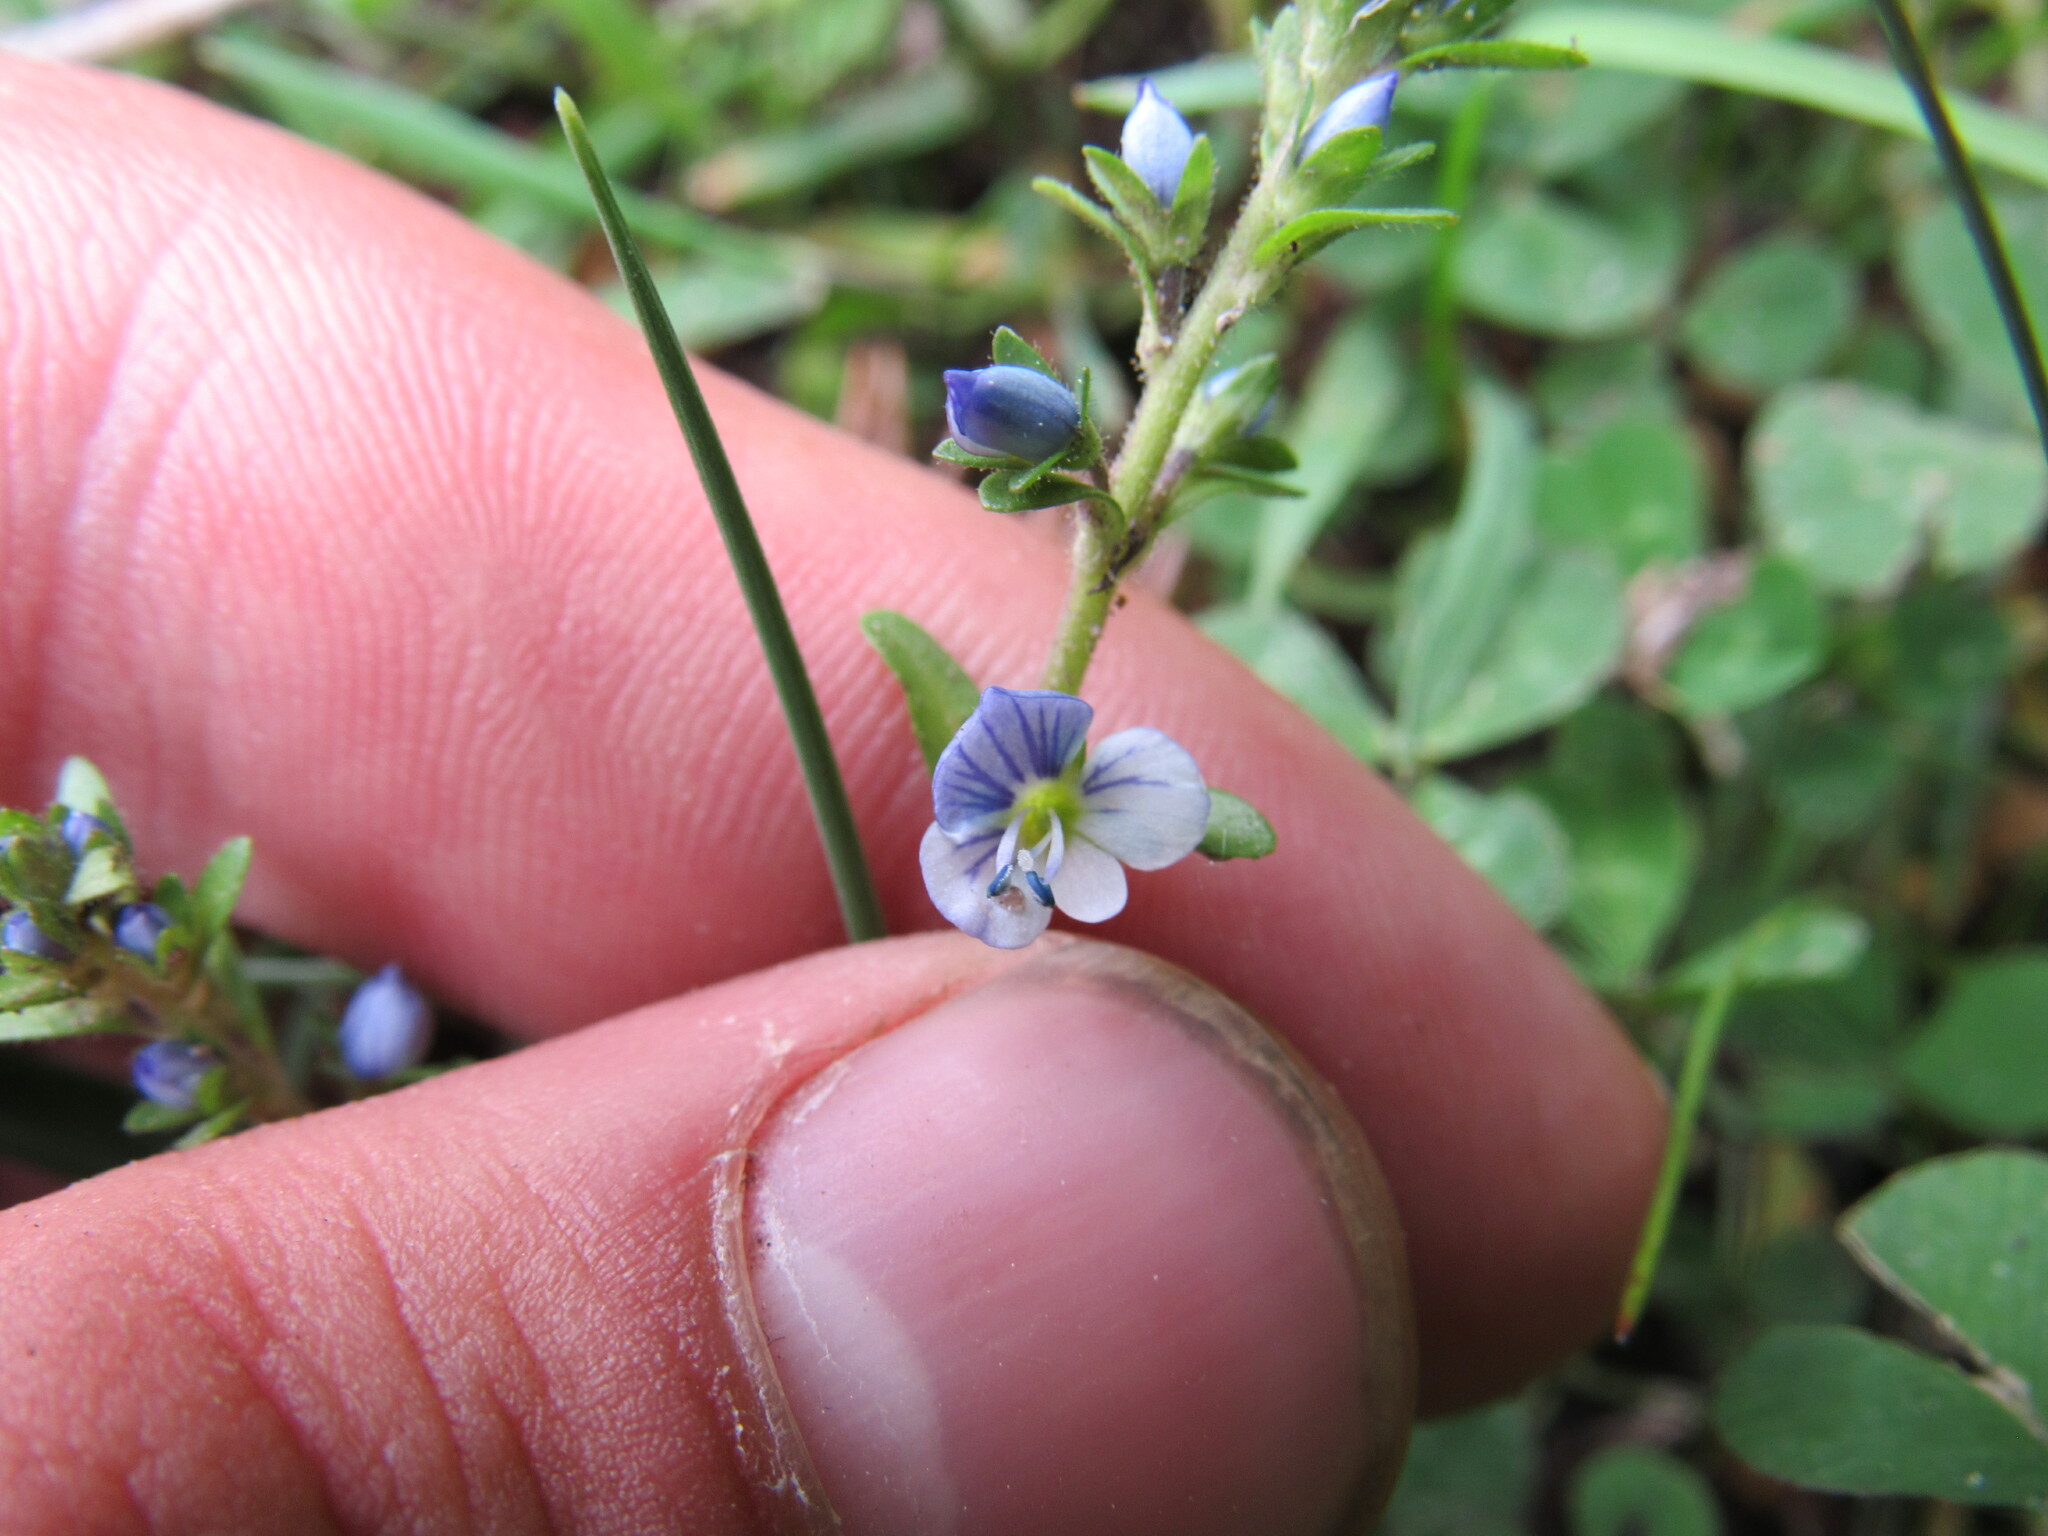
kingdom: Plantae
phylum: Tracheophyta
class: Magnoliopsida
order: Lamiales
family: Plantaginaceae
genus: Veronica
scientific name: Veronica serpyllifolia
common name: Thyme-leaved speedwell
